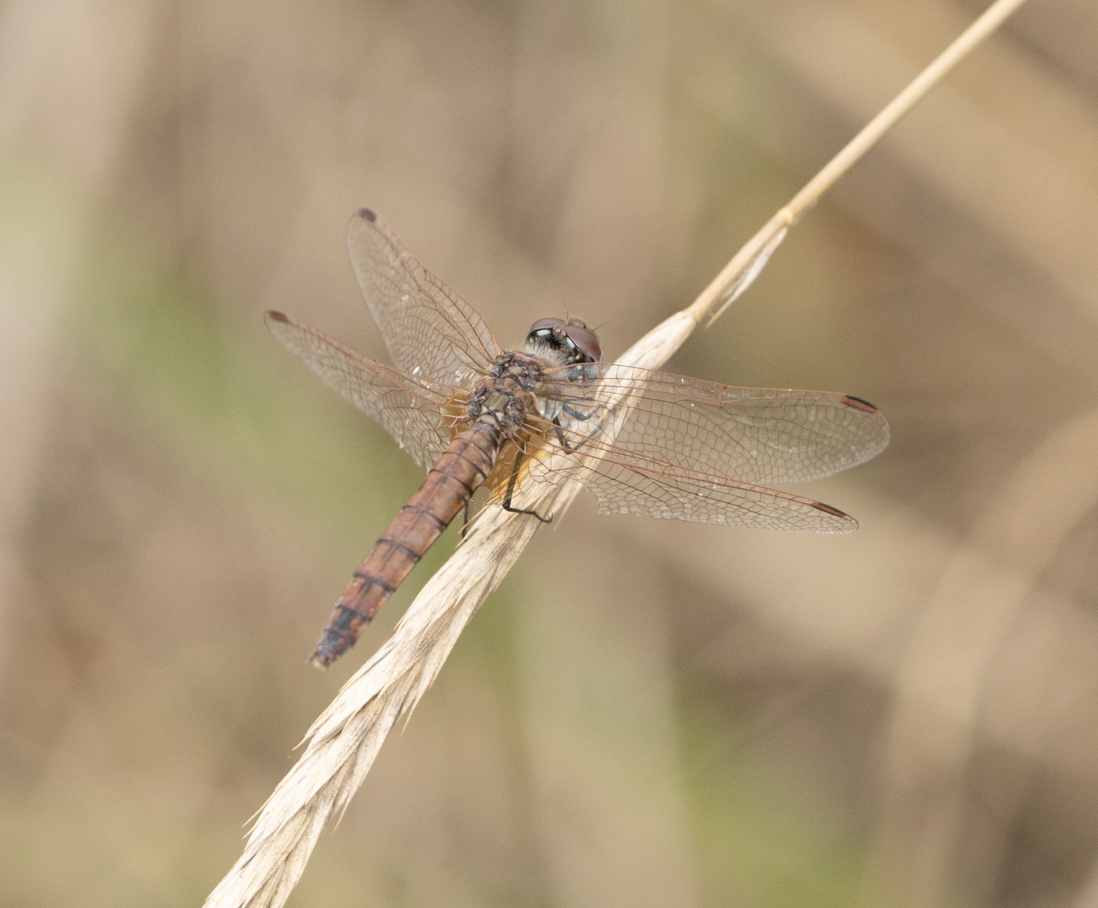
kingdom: Animalia
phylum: Arthropoda
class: Insecta
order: Odonata
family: Libellulidae
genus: Trithemis
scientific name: Trithemis annulata
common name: Violet dropwing
